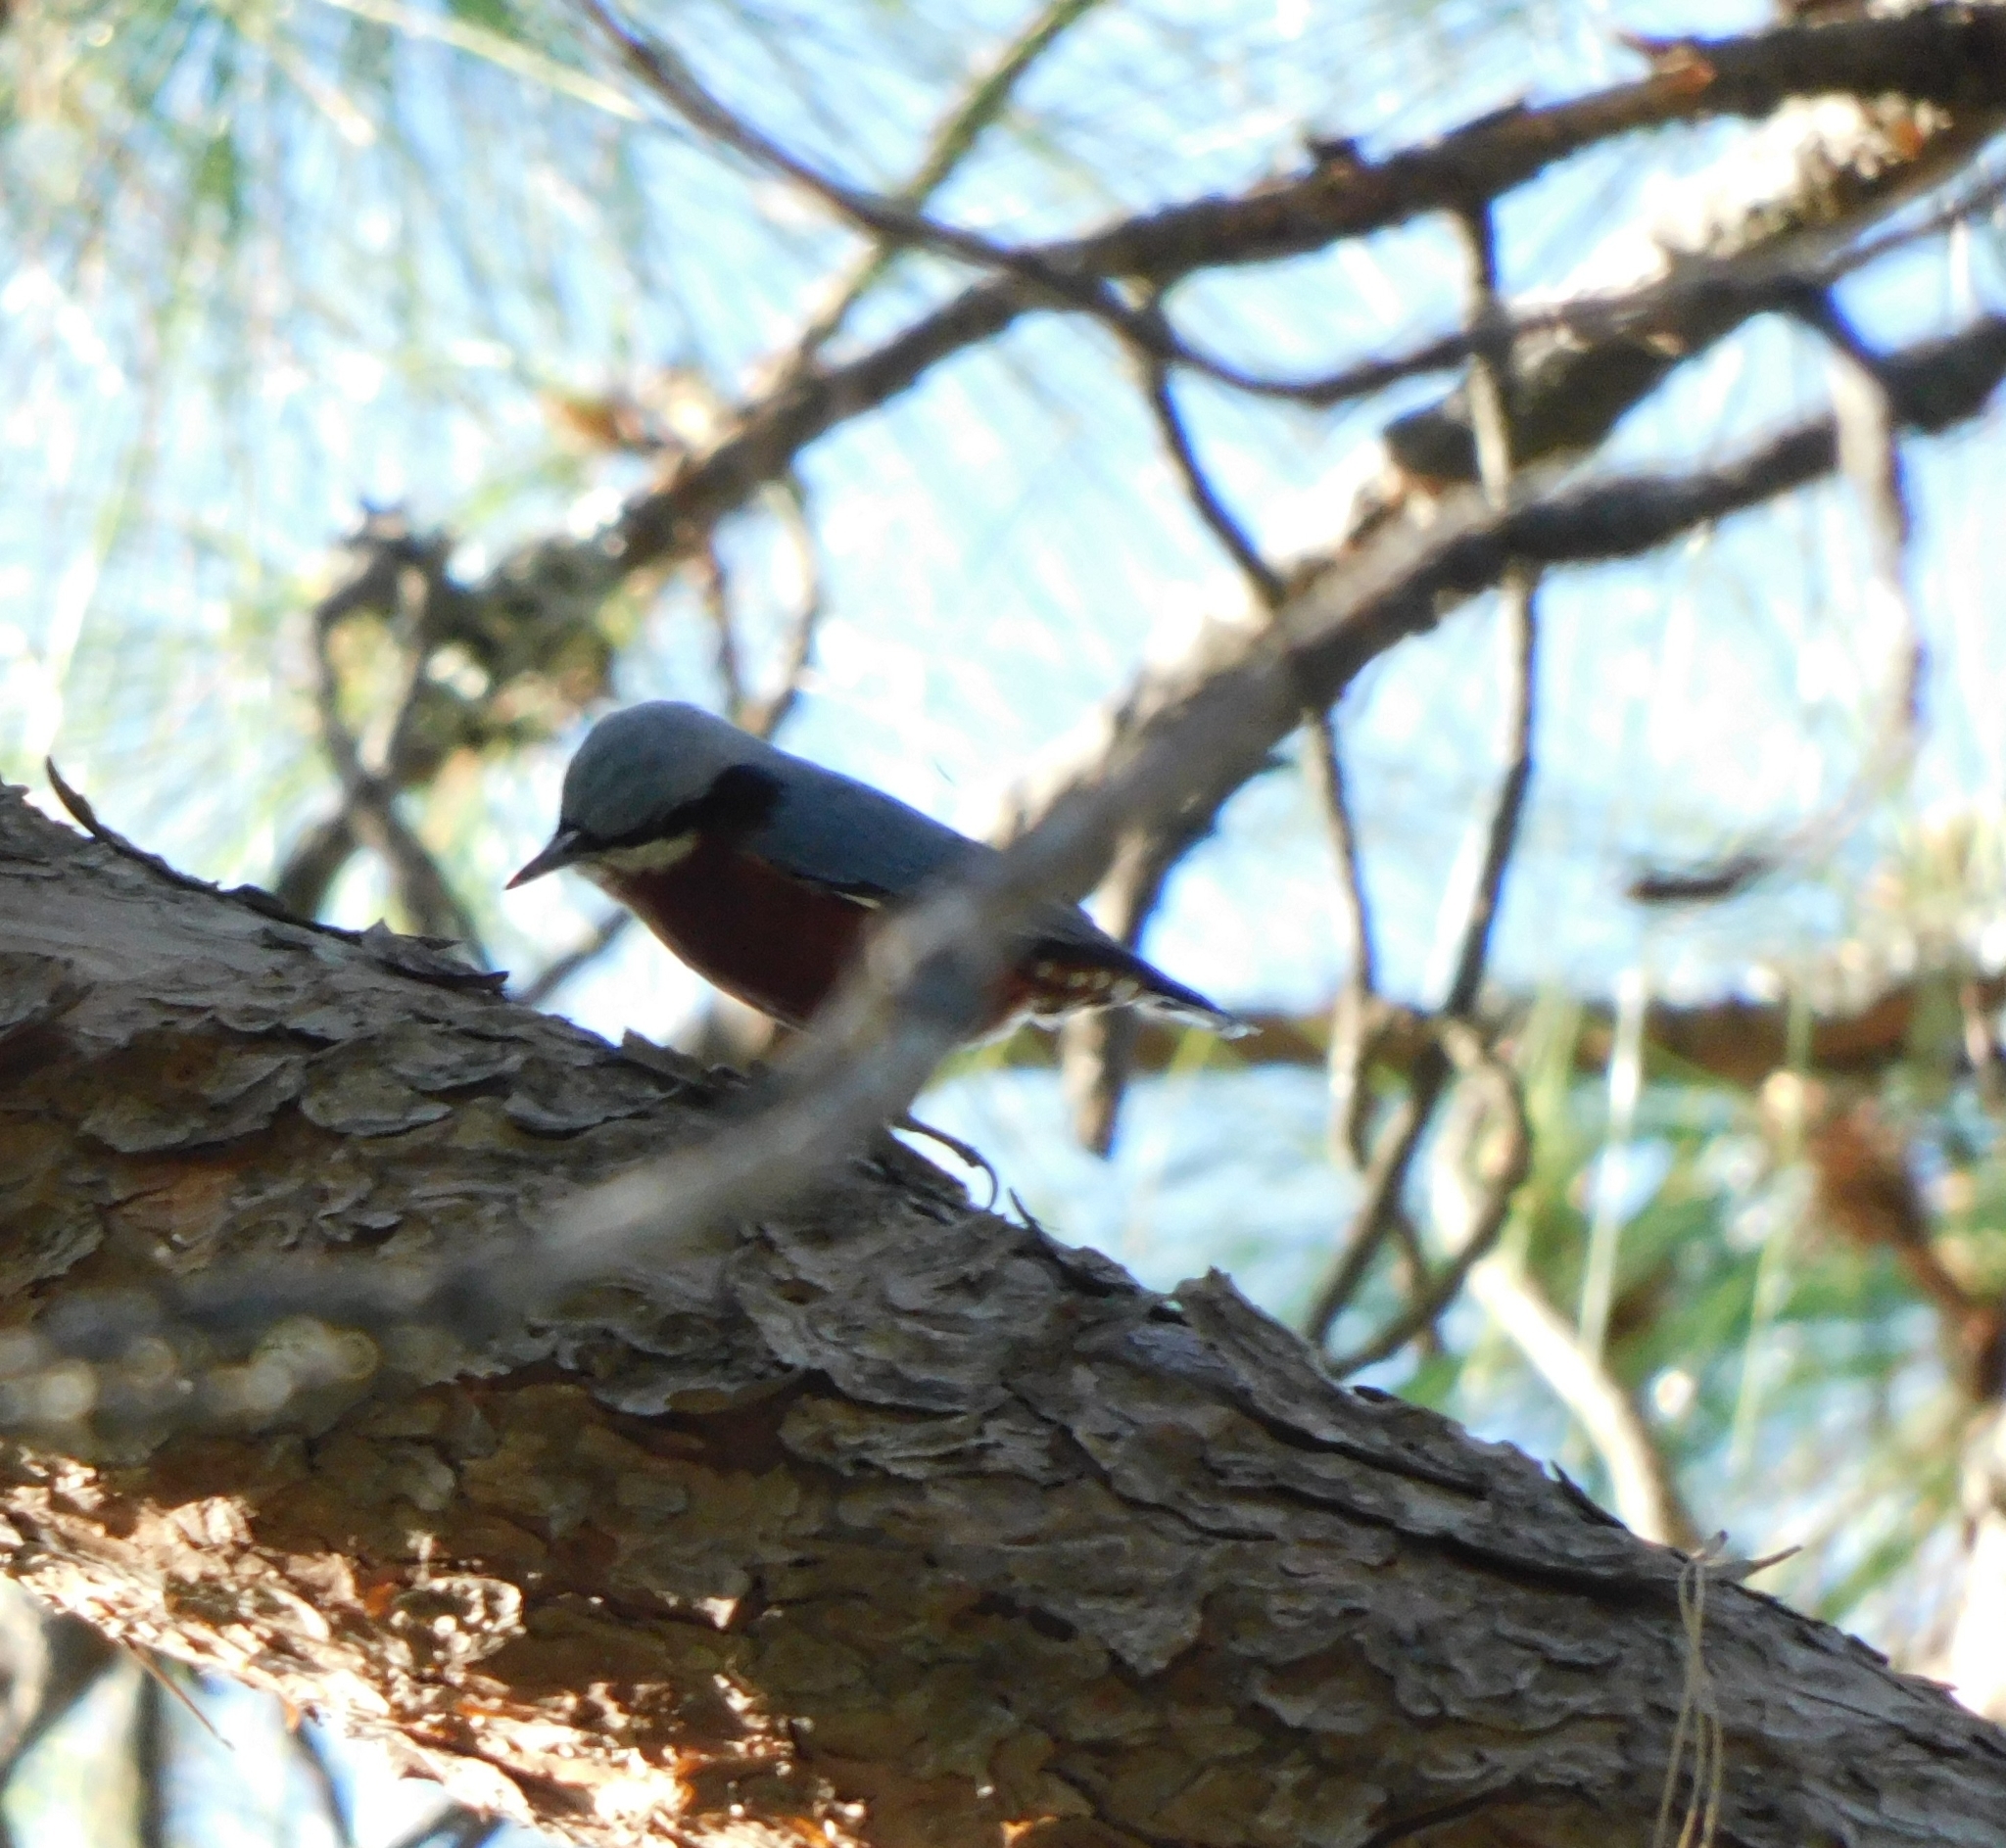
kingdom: Animalia
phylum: Chordata
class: Aves
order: Passeriformes
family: Sittidae
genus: Sitta
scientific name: Sitta cinnamoventris
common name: Chestnut-bellied nuthatch
